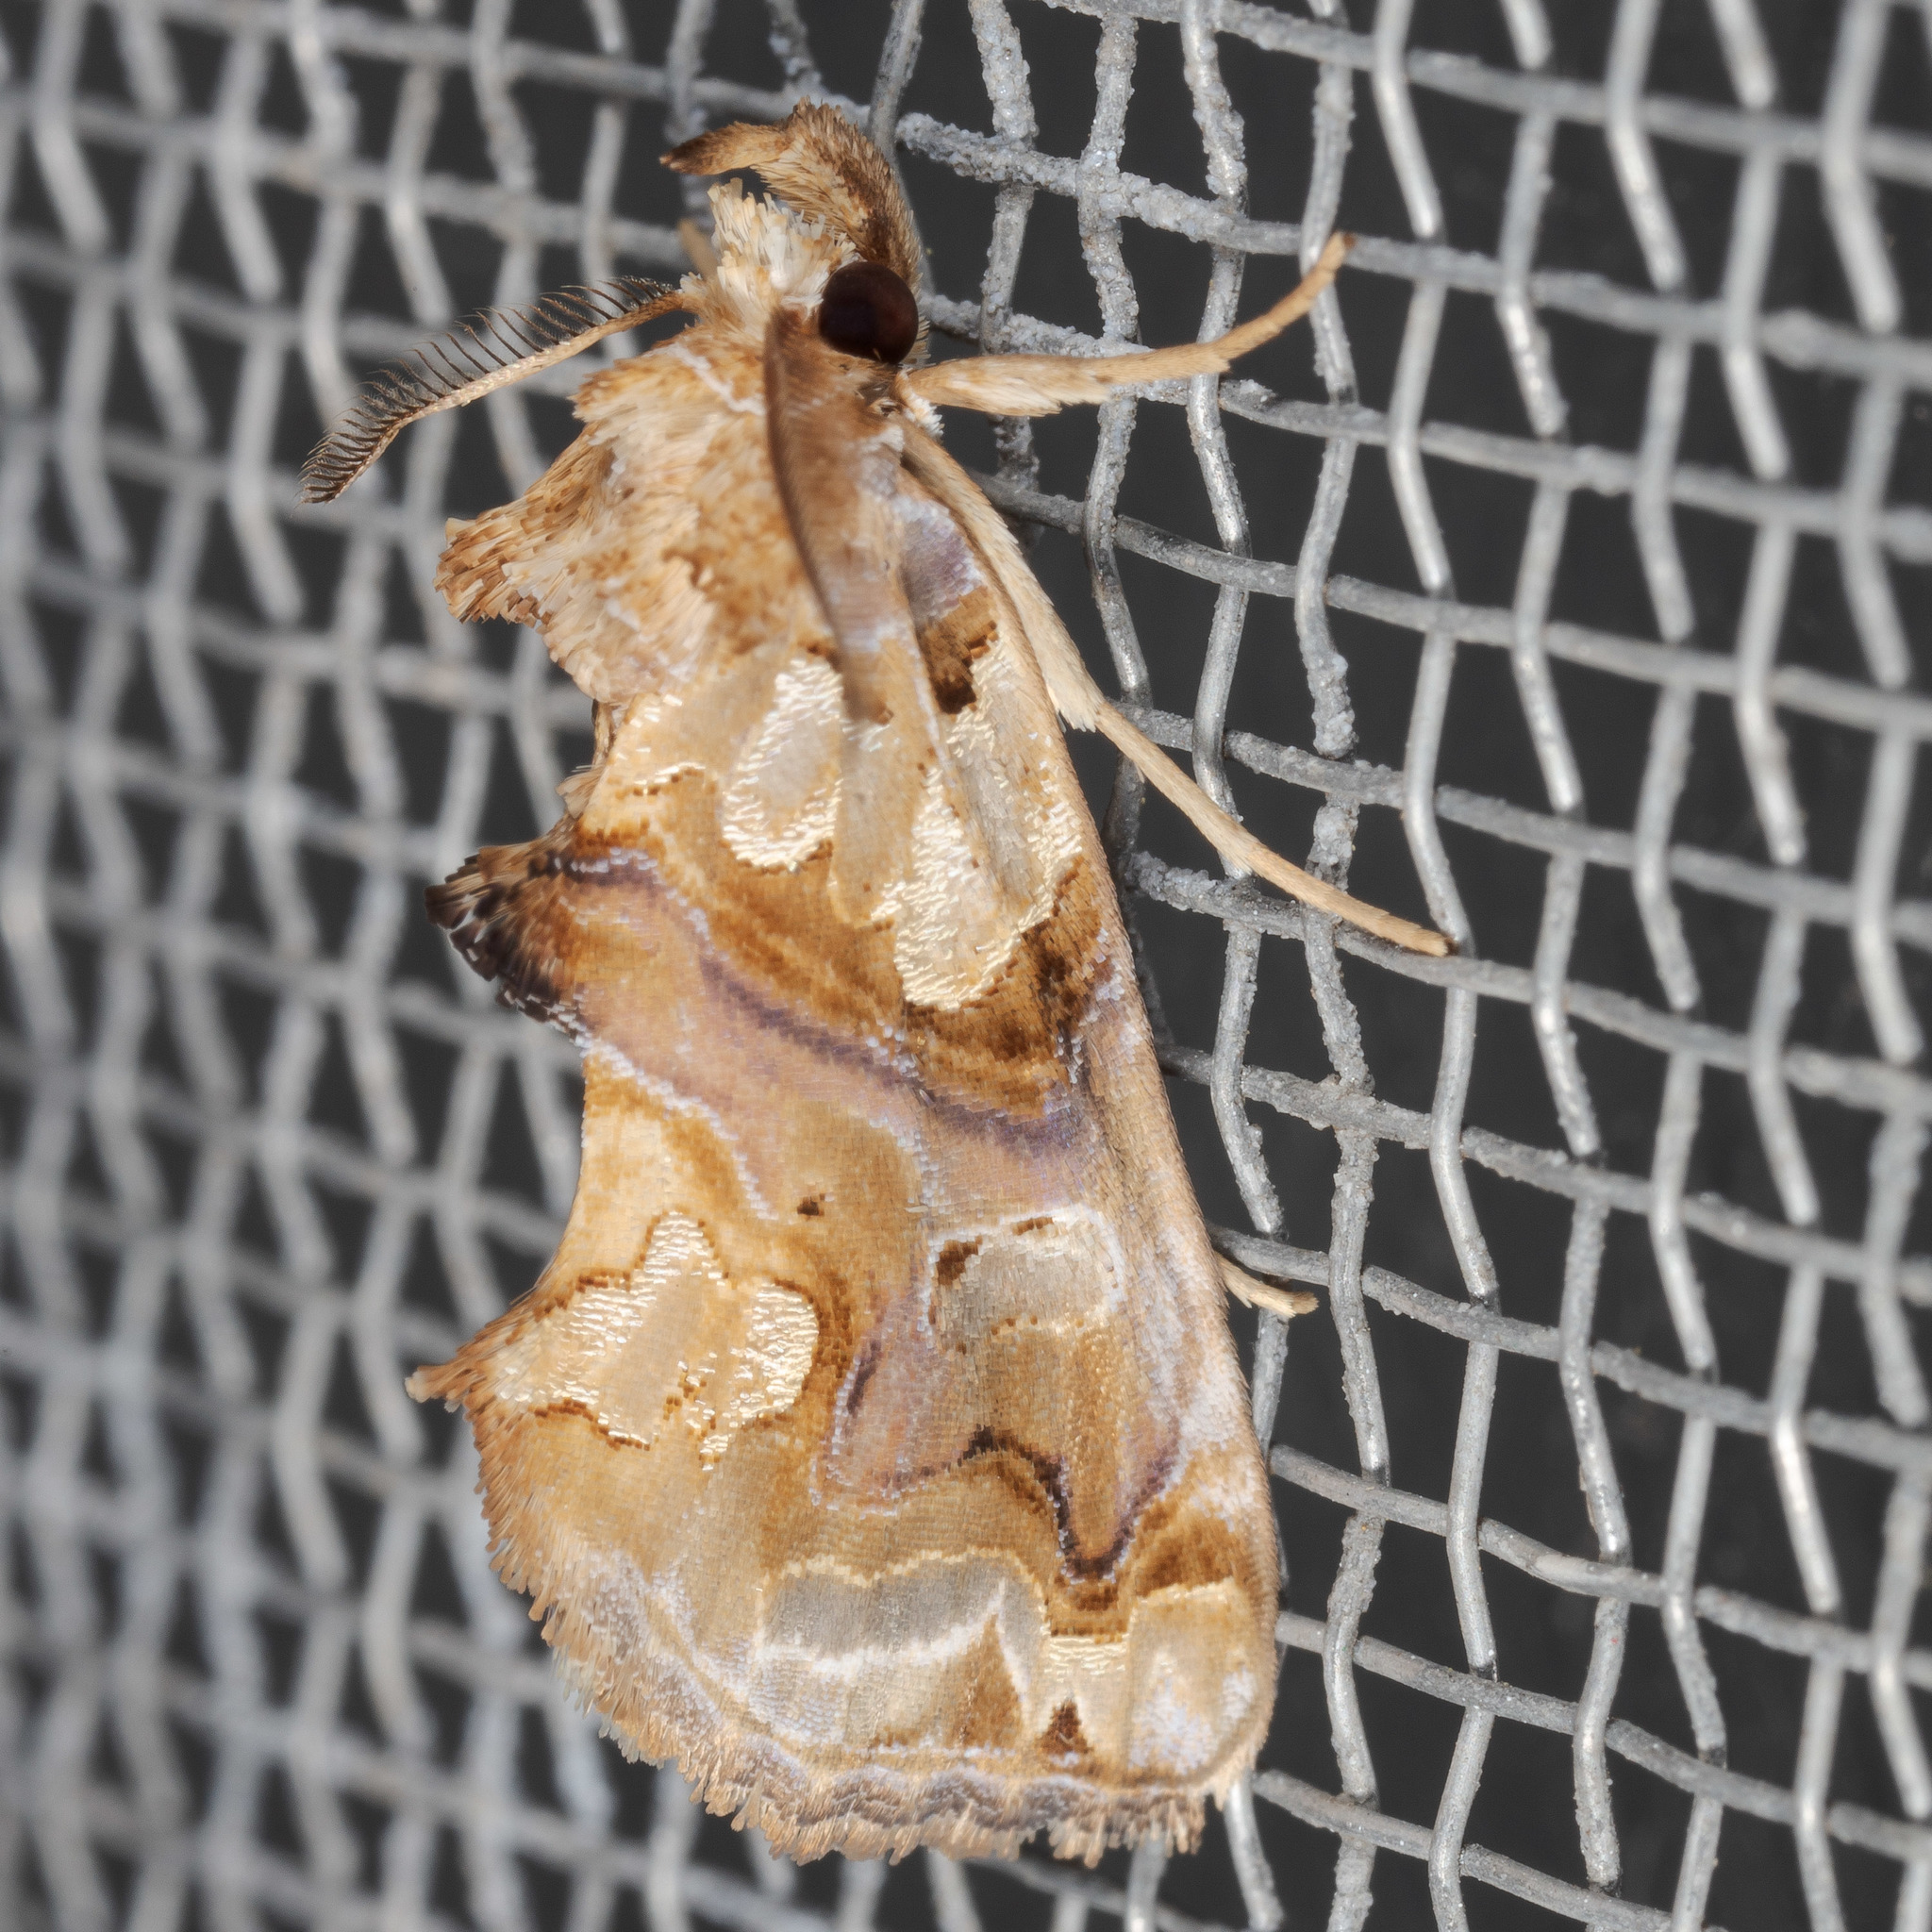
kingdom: Animalia
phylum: Arthropoda
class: Insecta
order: Lepidoptera
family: Erebidae
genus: Plusiodonta
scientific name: Plusiodonta compressipalpis
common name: Moonseed moth
